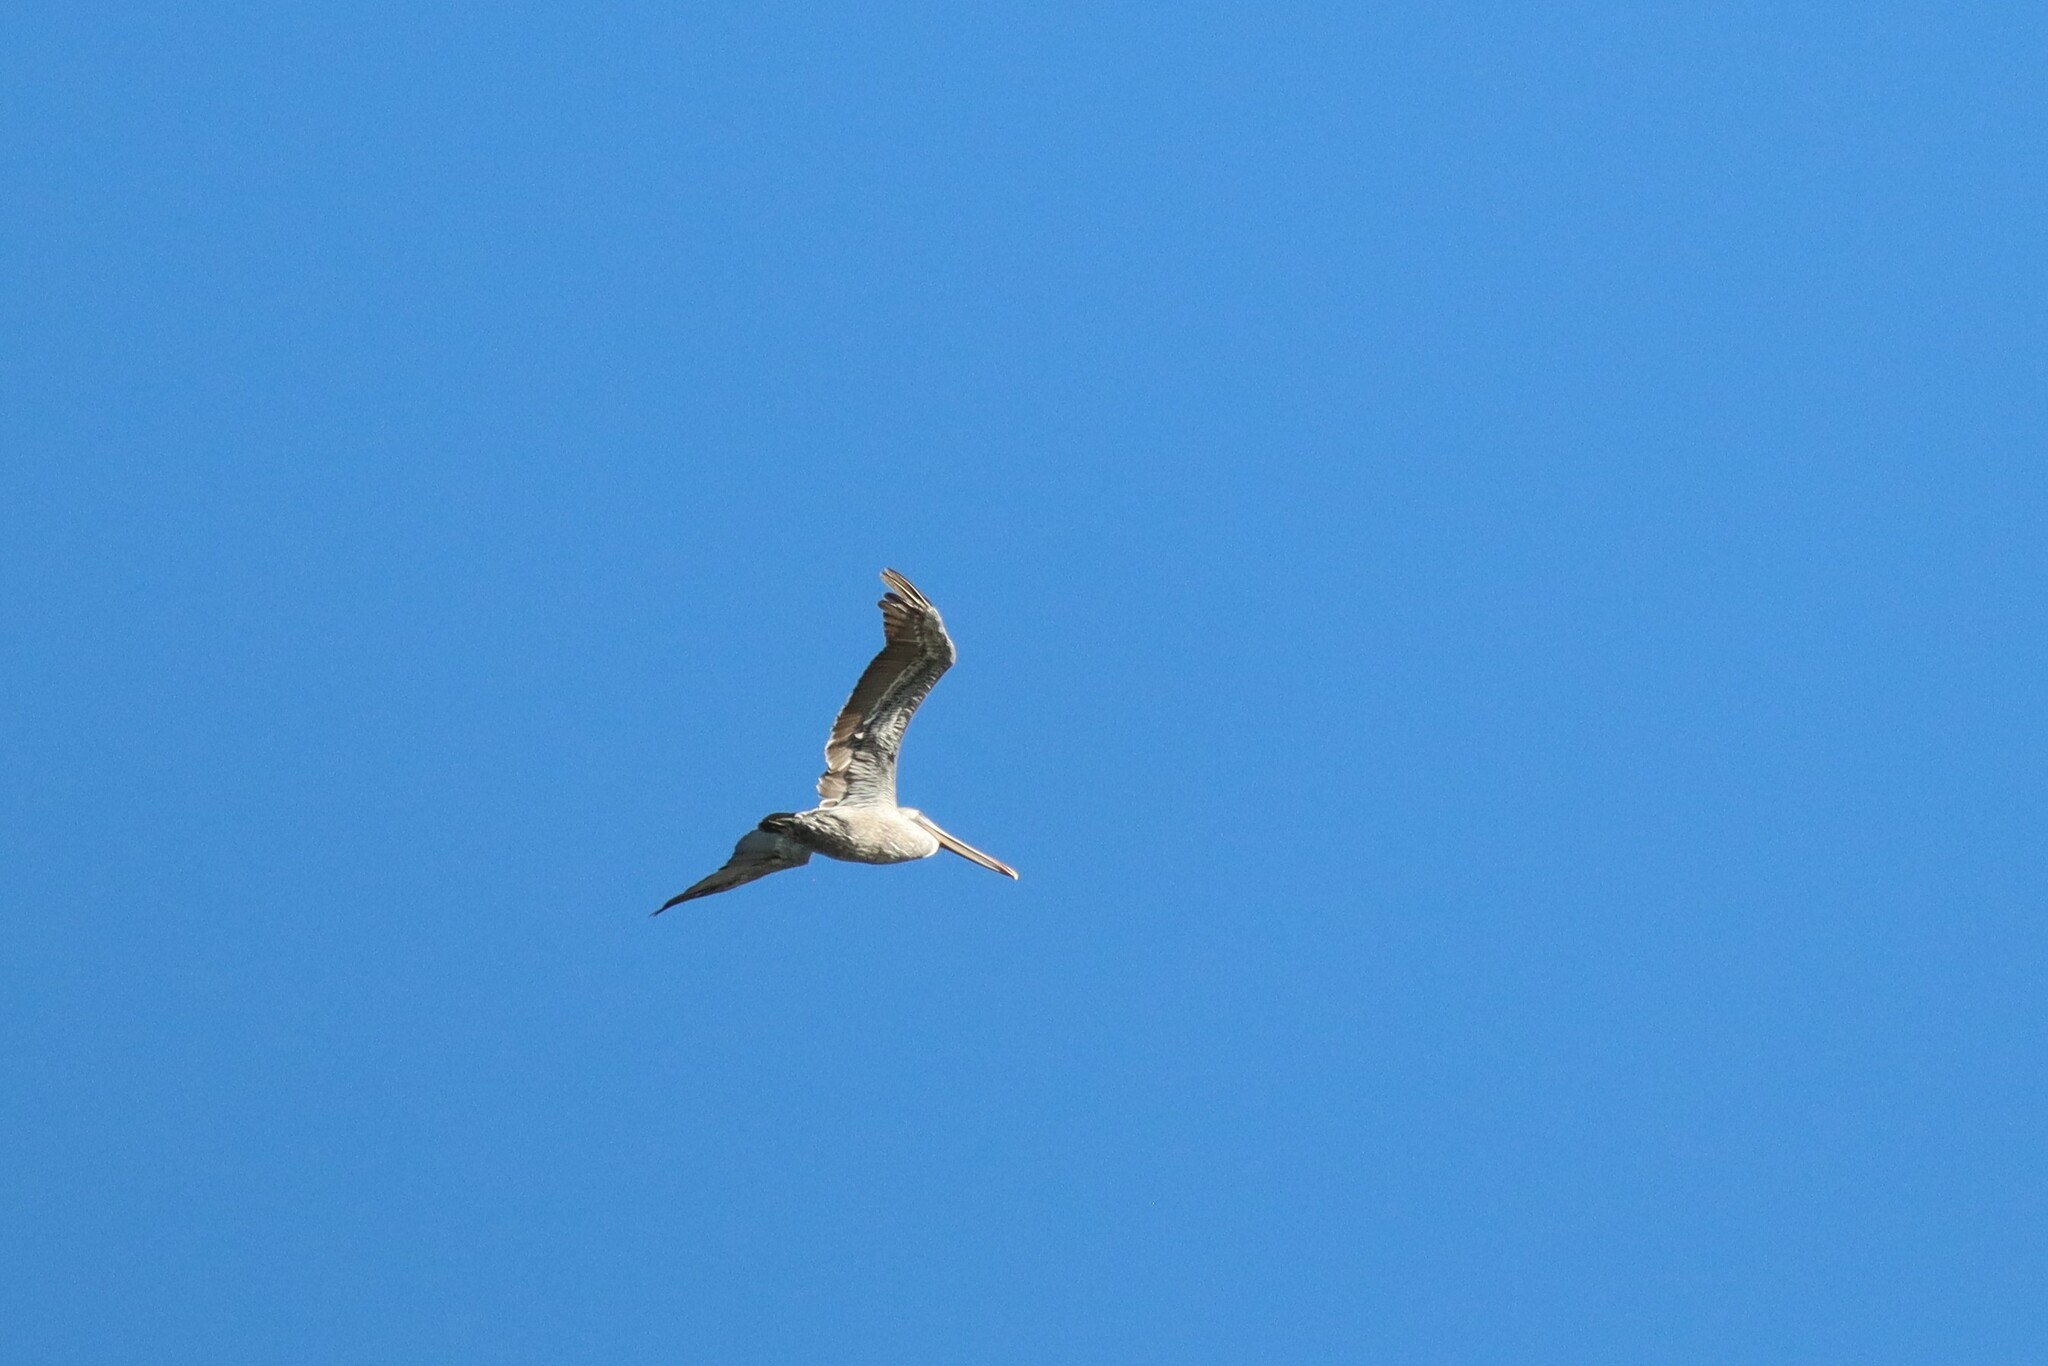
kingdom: Animalia
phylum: Chordata
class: Aves
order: Pelecaniformes
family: Pelecanidae
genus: Pelecanus
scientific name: Pelecanus occidentalis
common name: Brown pelican
